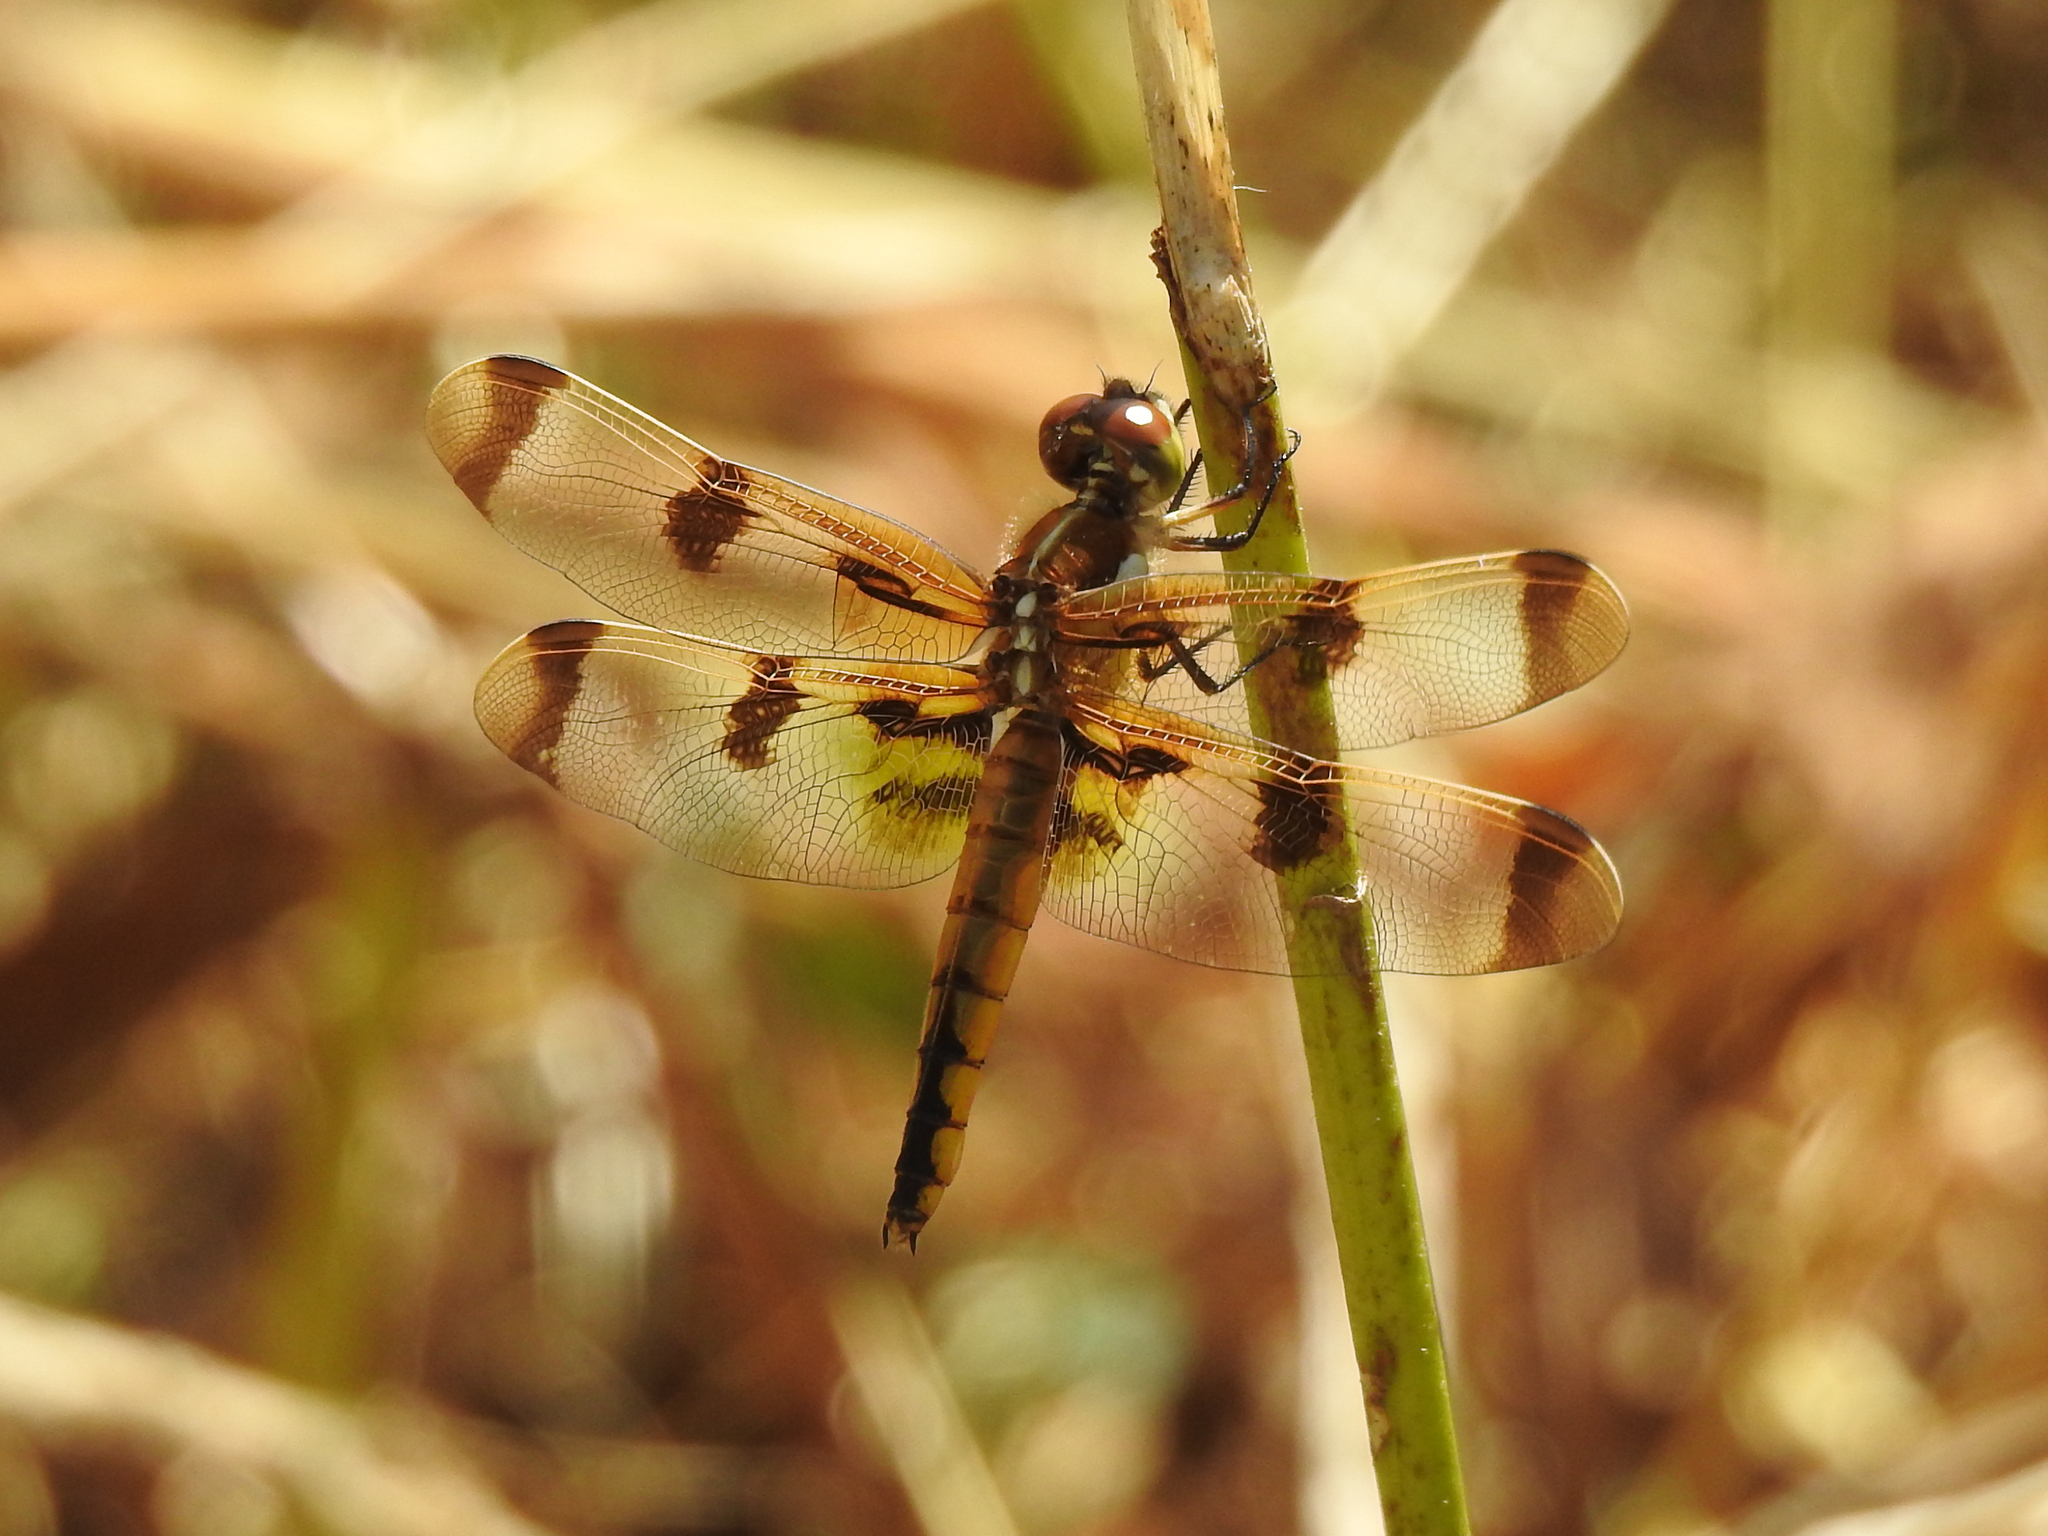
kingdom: Animalia
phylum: Arthropoda
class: Insecta
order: Odonata
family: Libellulidae
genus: Libellula
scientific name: Libellula semifasciata
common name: Painted skimmer
